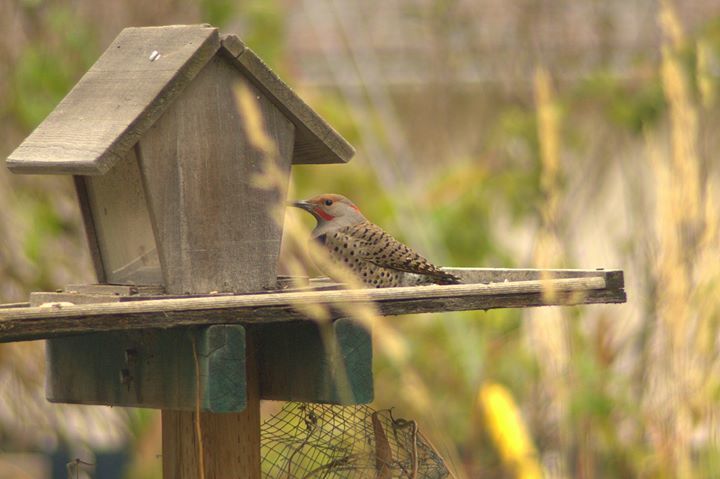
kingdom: Animalia
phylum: Chordata
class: Aves
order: Piciformes
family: Picidae
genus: Colaptes
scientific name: Colaptes auratus
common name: Northern flicker
